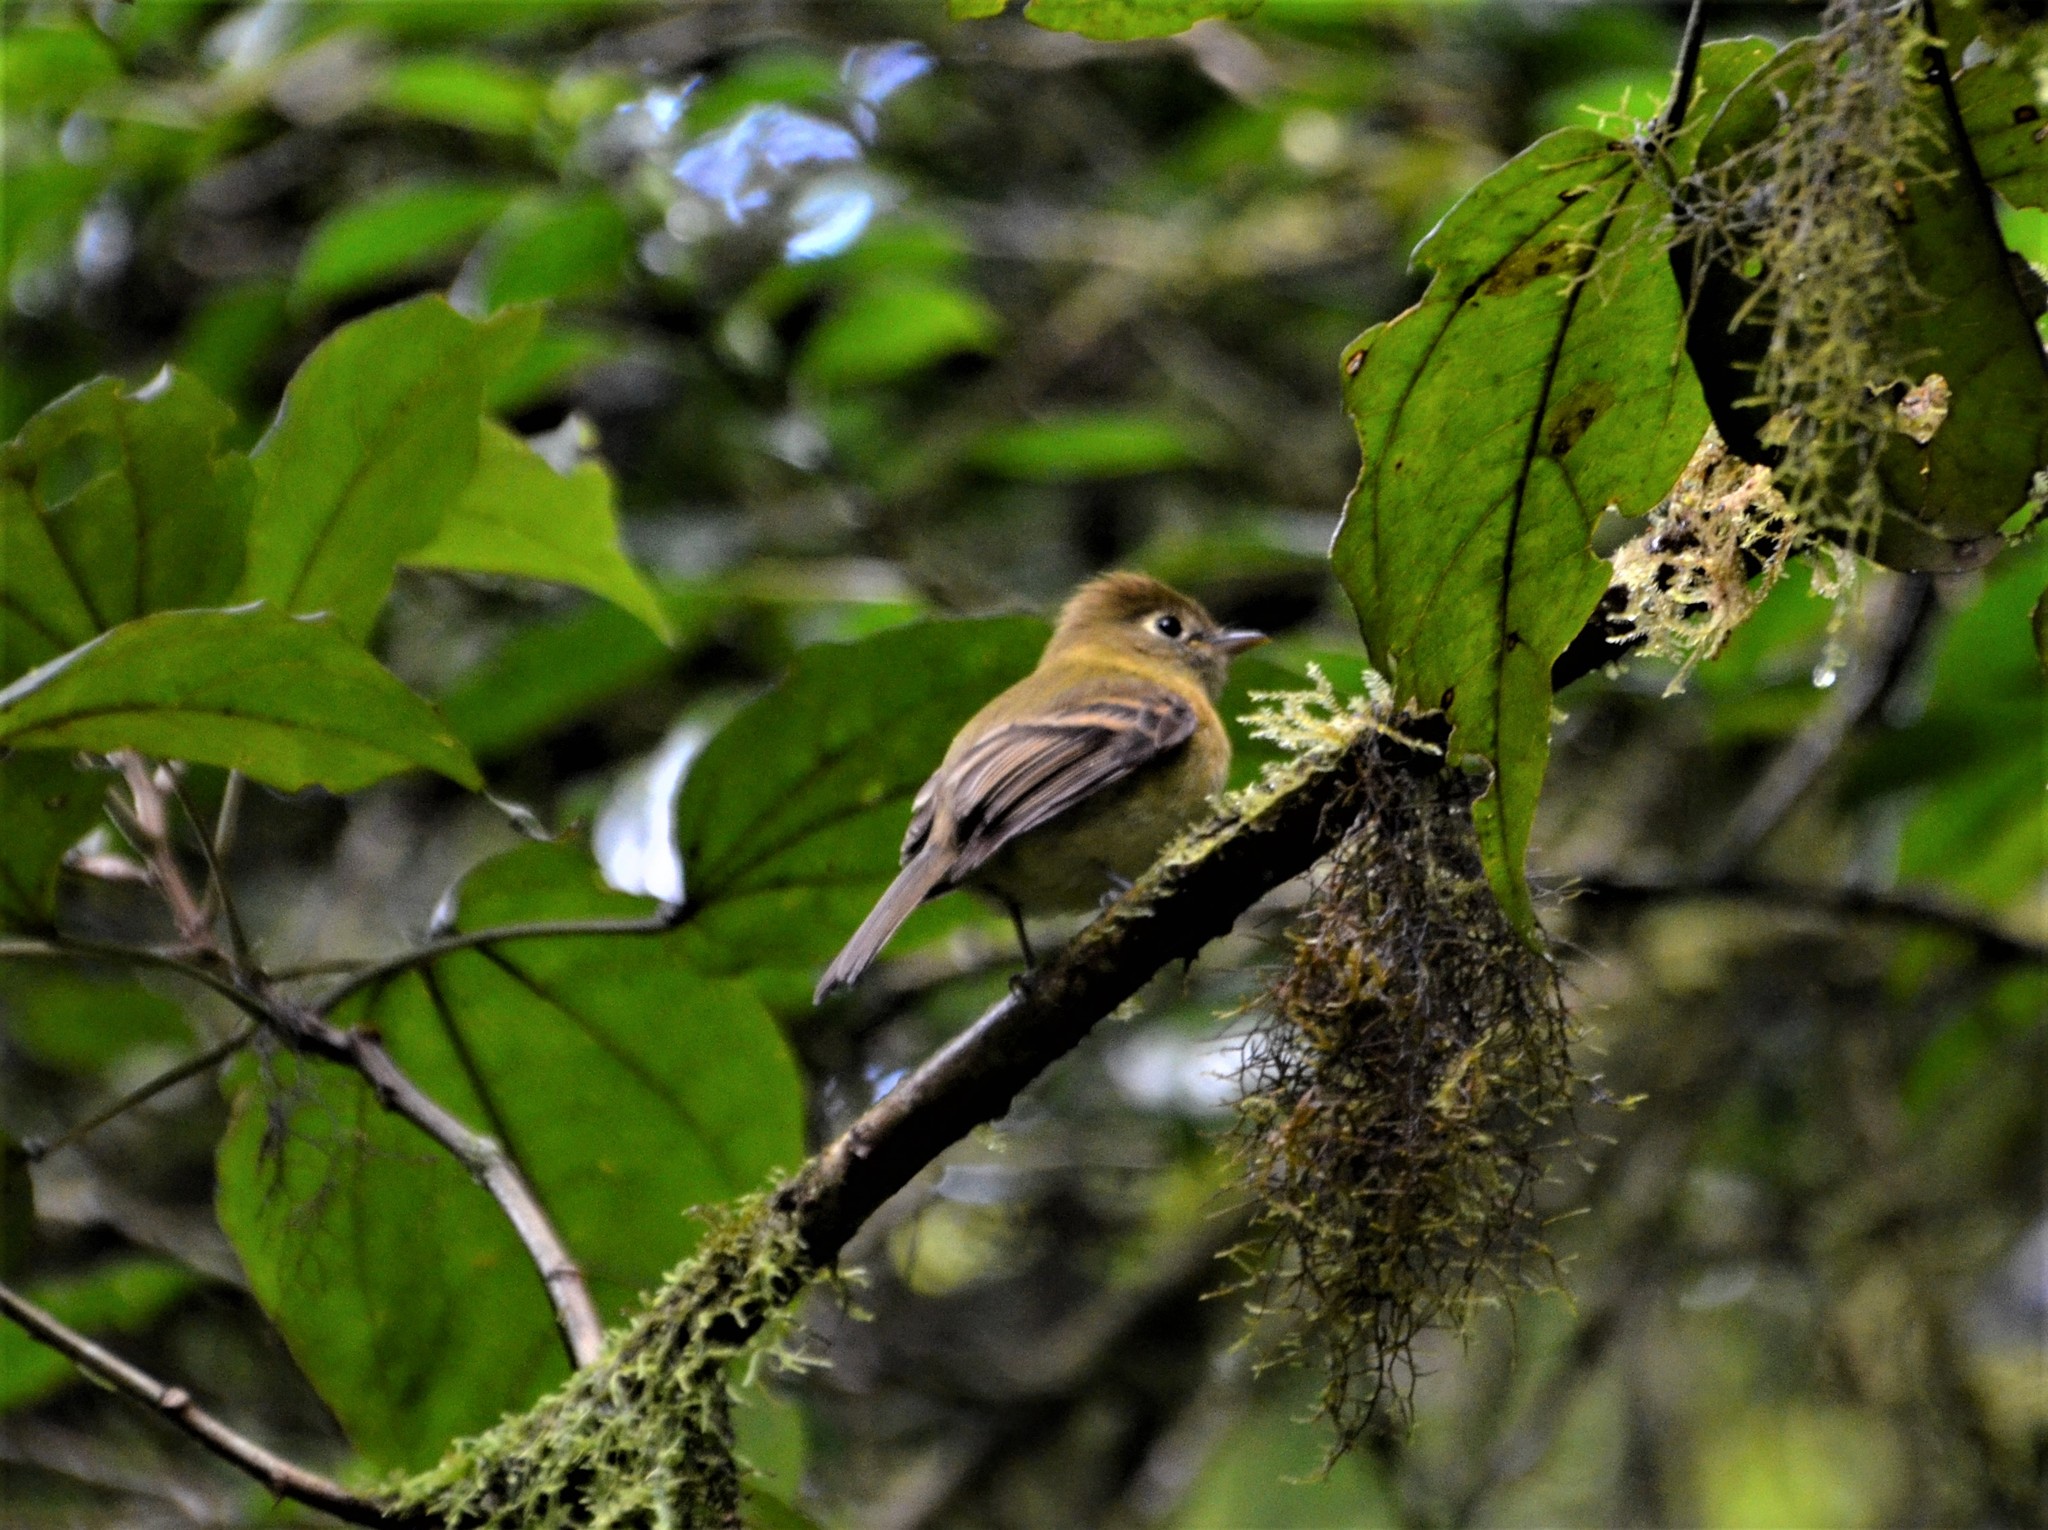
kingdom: Animalia
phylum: Chordata
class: Aves
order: Passeriformes
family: Tyrannidae
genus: Empidonax
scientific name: Empidonax flavescens
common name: Yellowish flycatcher
